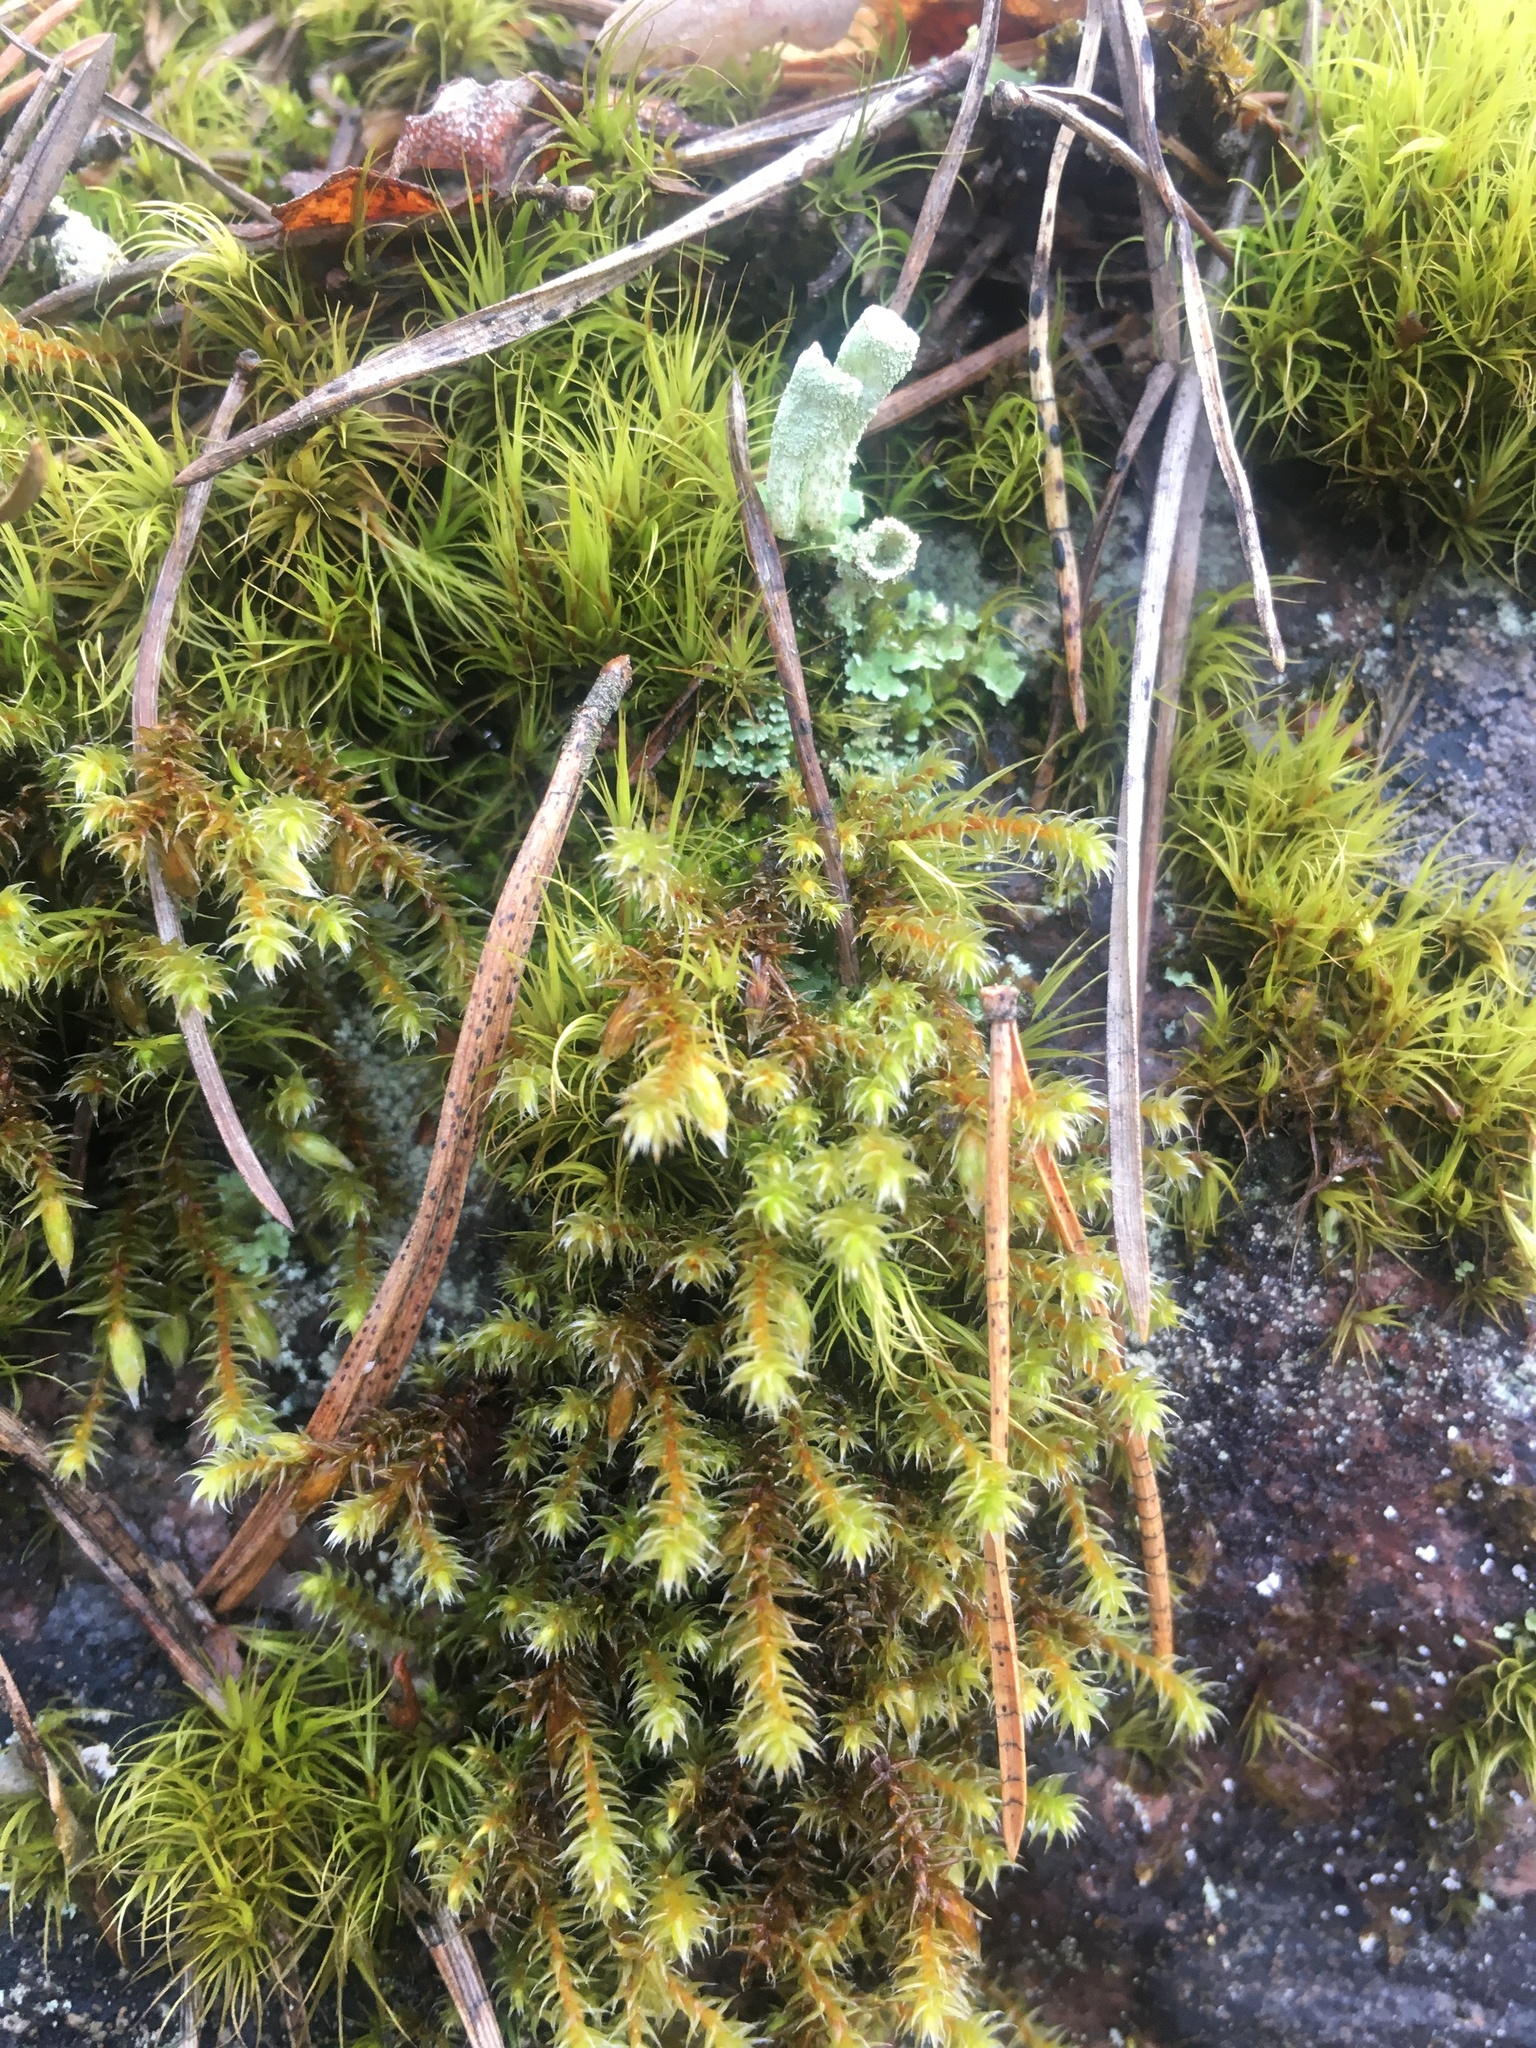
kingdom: Plantae
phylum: Bryophyta
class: Bryopsida
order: Hedwigiales
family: Hedwigiaceae
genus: Hedwigia
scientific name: Hedwigia ciliata
